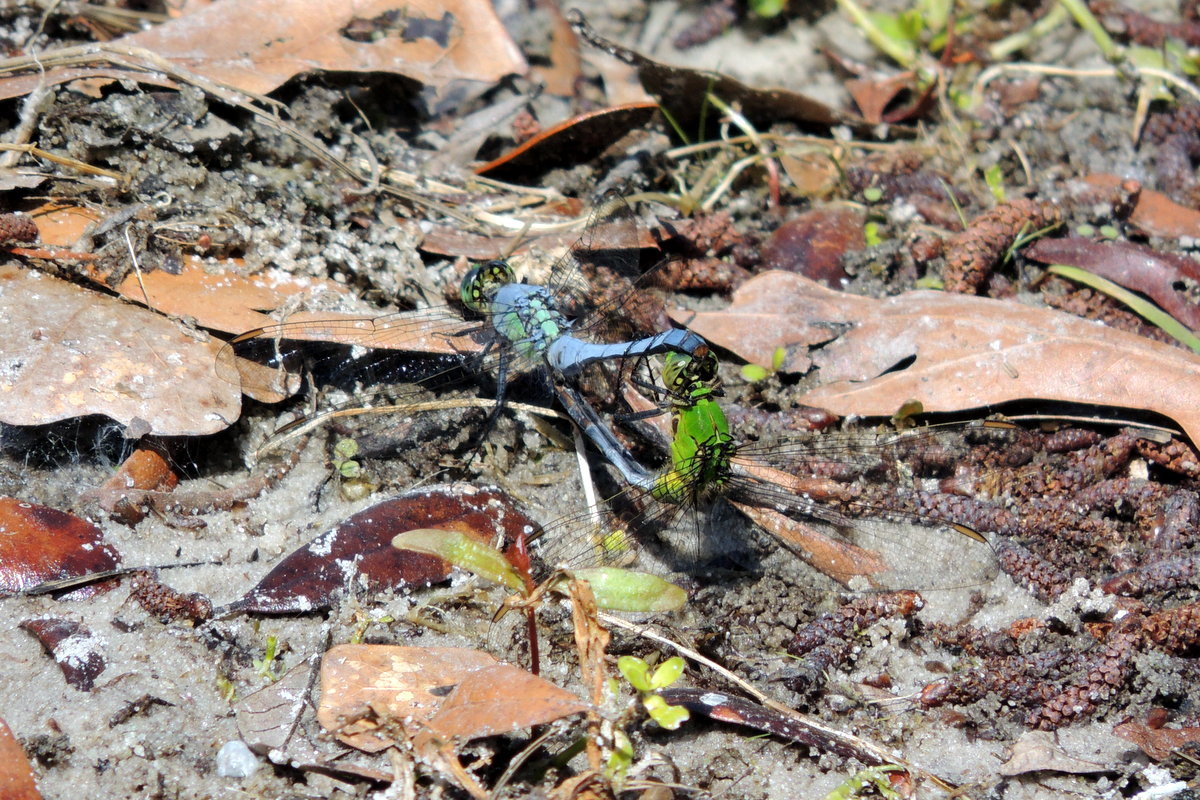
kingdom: Animalia
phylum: Arthropoda
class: Insecta
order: Odonata
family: Libellulidae
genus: Erythemis
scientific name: Erythemis simplicicollis
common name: Eastern pondhawk
